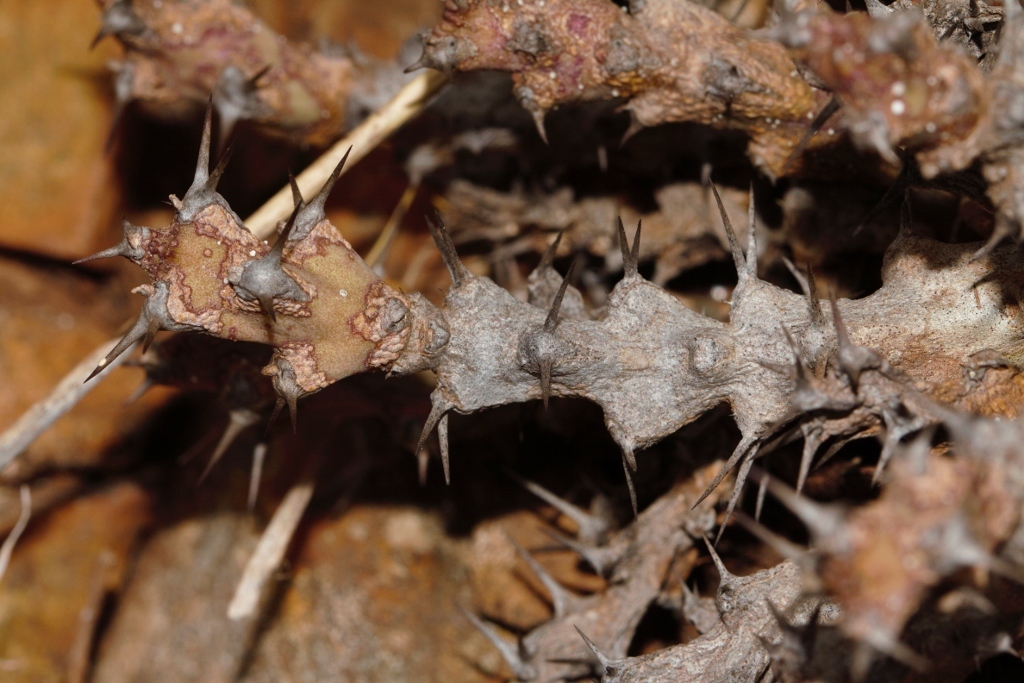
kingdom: Plantae
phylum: Tracheophyta
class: Magnoliopsida
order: Malpighiales
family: Euphorbiaceae
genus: Euphorbia
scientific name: Euphorbia acervata
